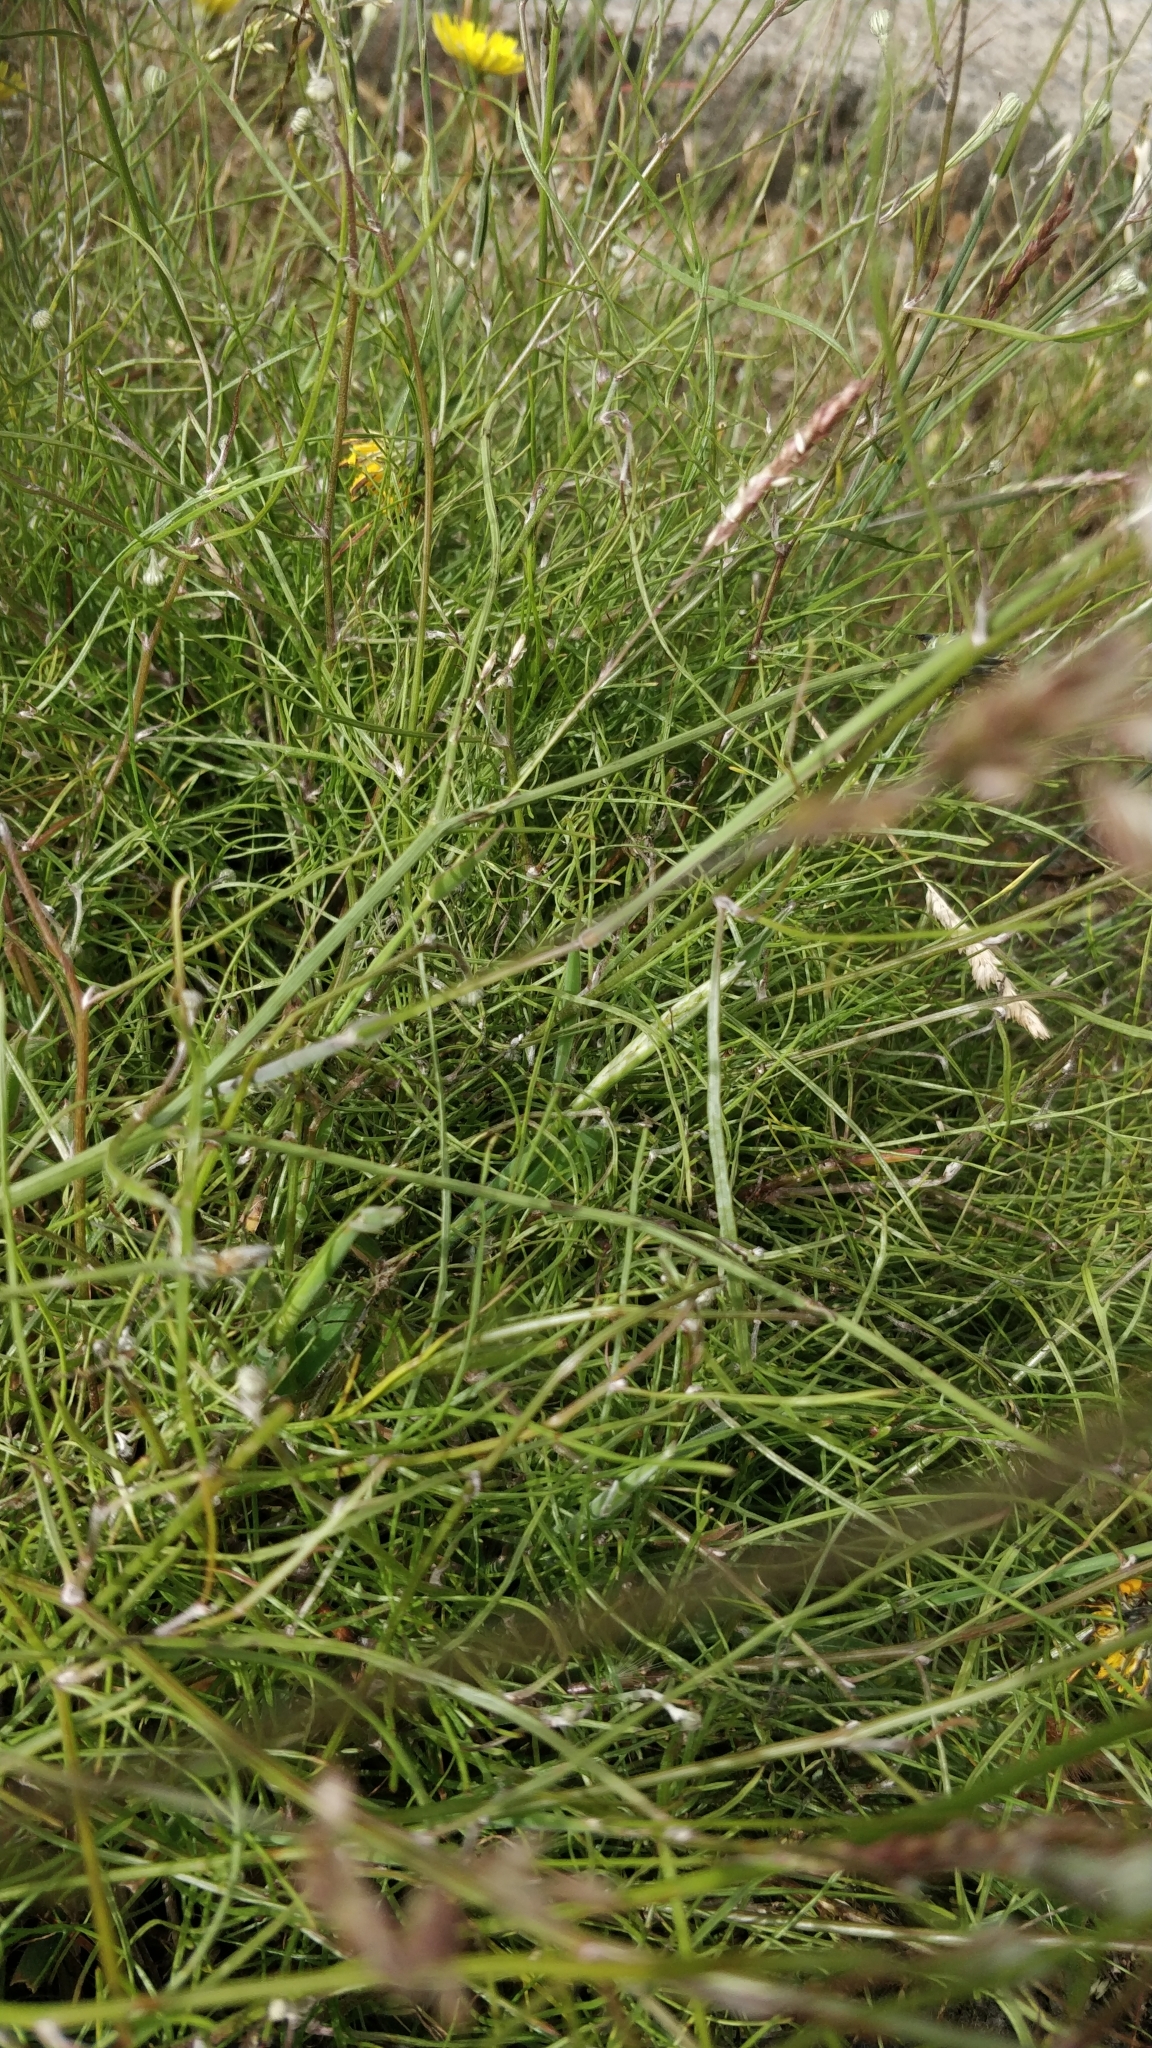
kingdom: Plantae
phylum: Tracheophyta
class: Magnoliopsida
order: Asterales
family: Asteraceae
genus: Tolpis
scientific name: Tolpis succulenta
